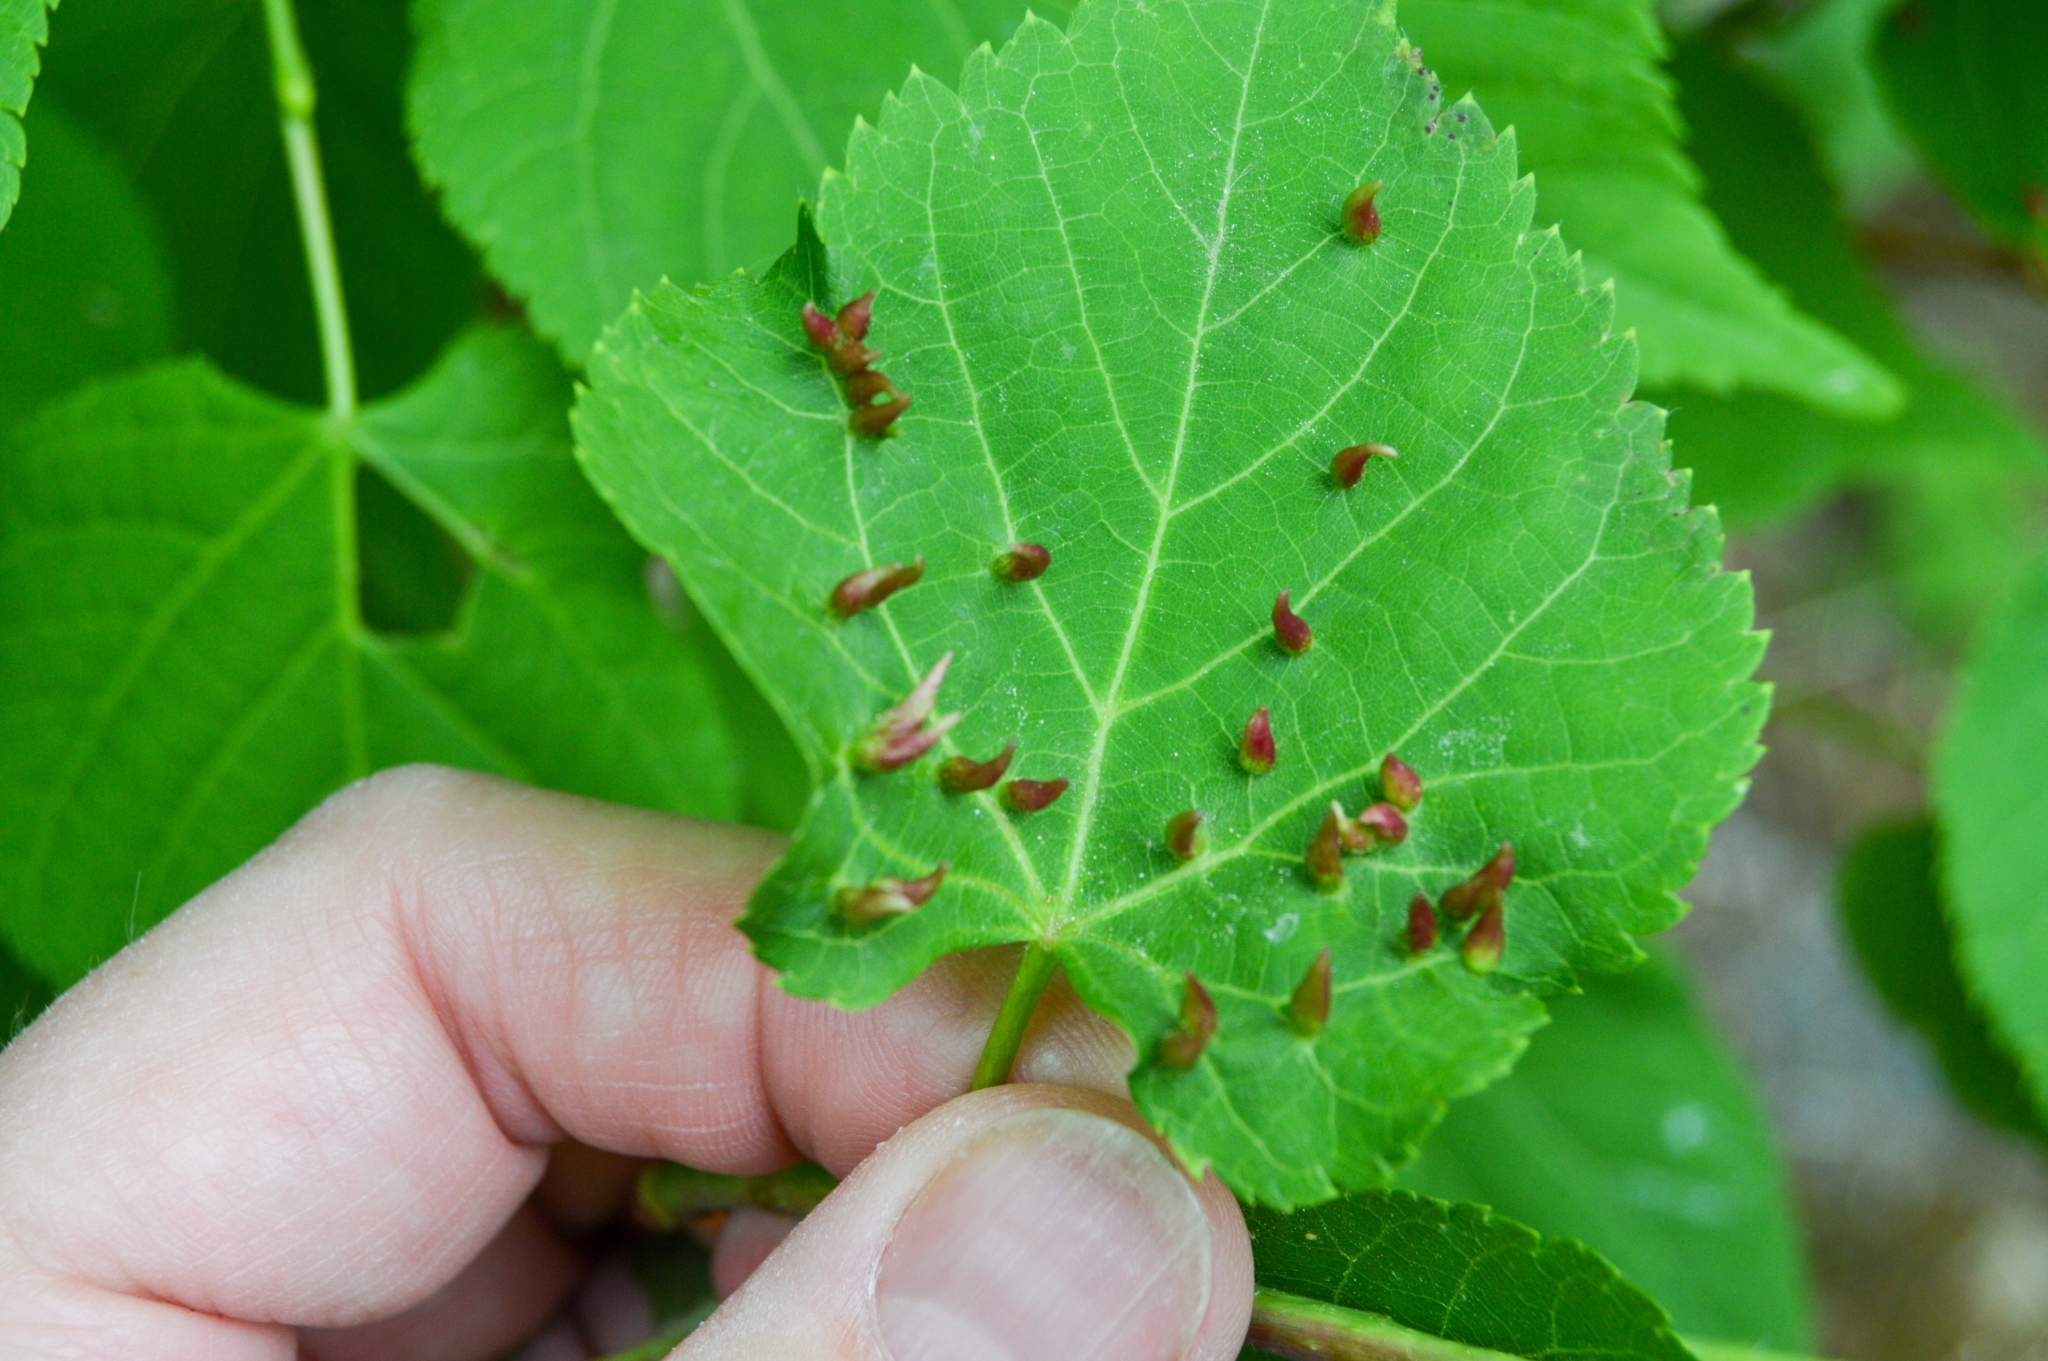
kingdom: Animalia
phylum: Arthropoda
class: Arachnida
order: Trombidiformes
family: Eriophyidae
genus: Eriophyes
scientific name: Eriophyes tiliae
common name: Red nail gall mite
